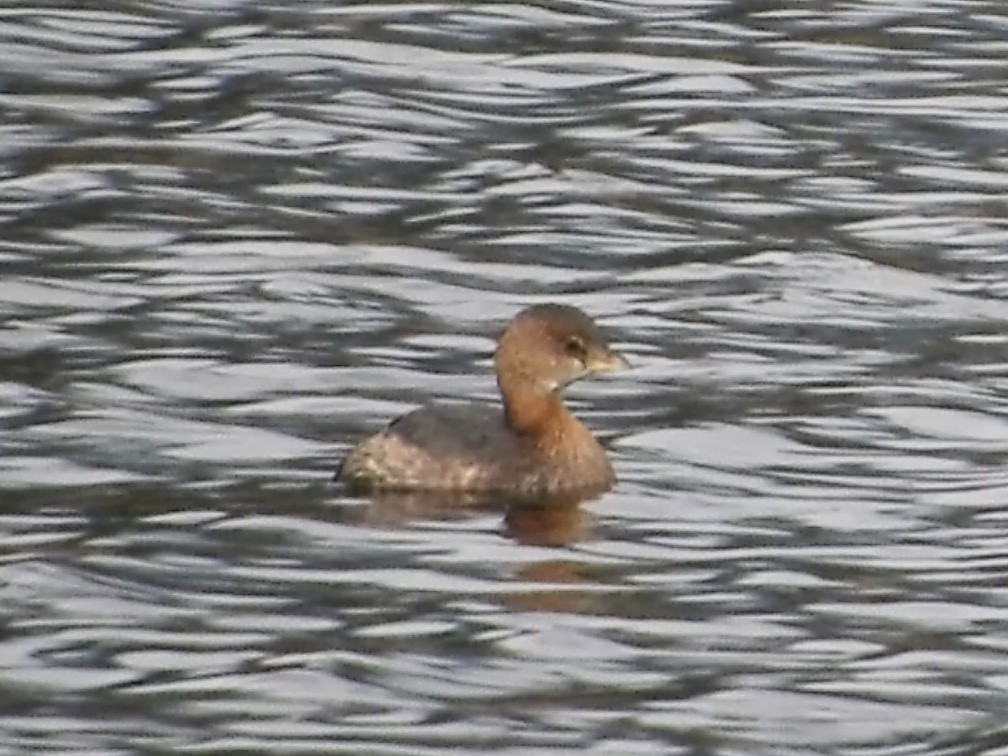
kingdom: Animalia
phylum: Chordata
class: Aves
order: Podicipediformes
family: Podicipedidae
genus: Podilymbus
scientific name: Podilymbus podiceps
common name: Pied-billed grebe
